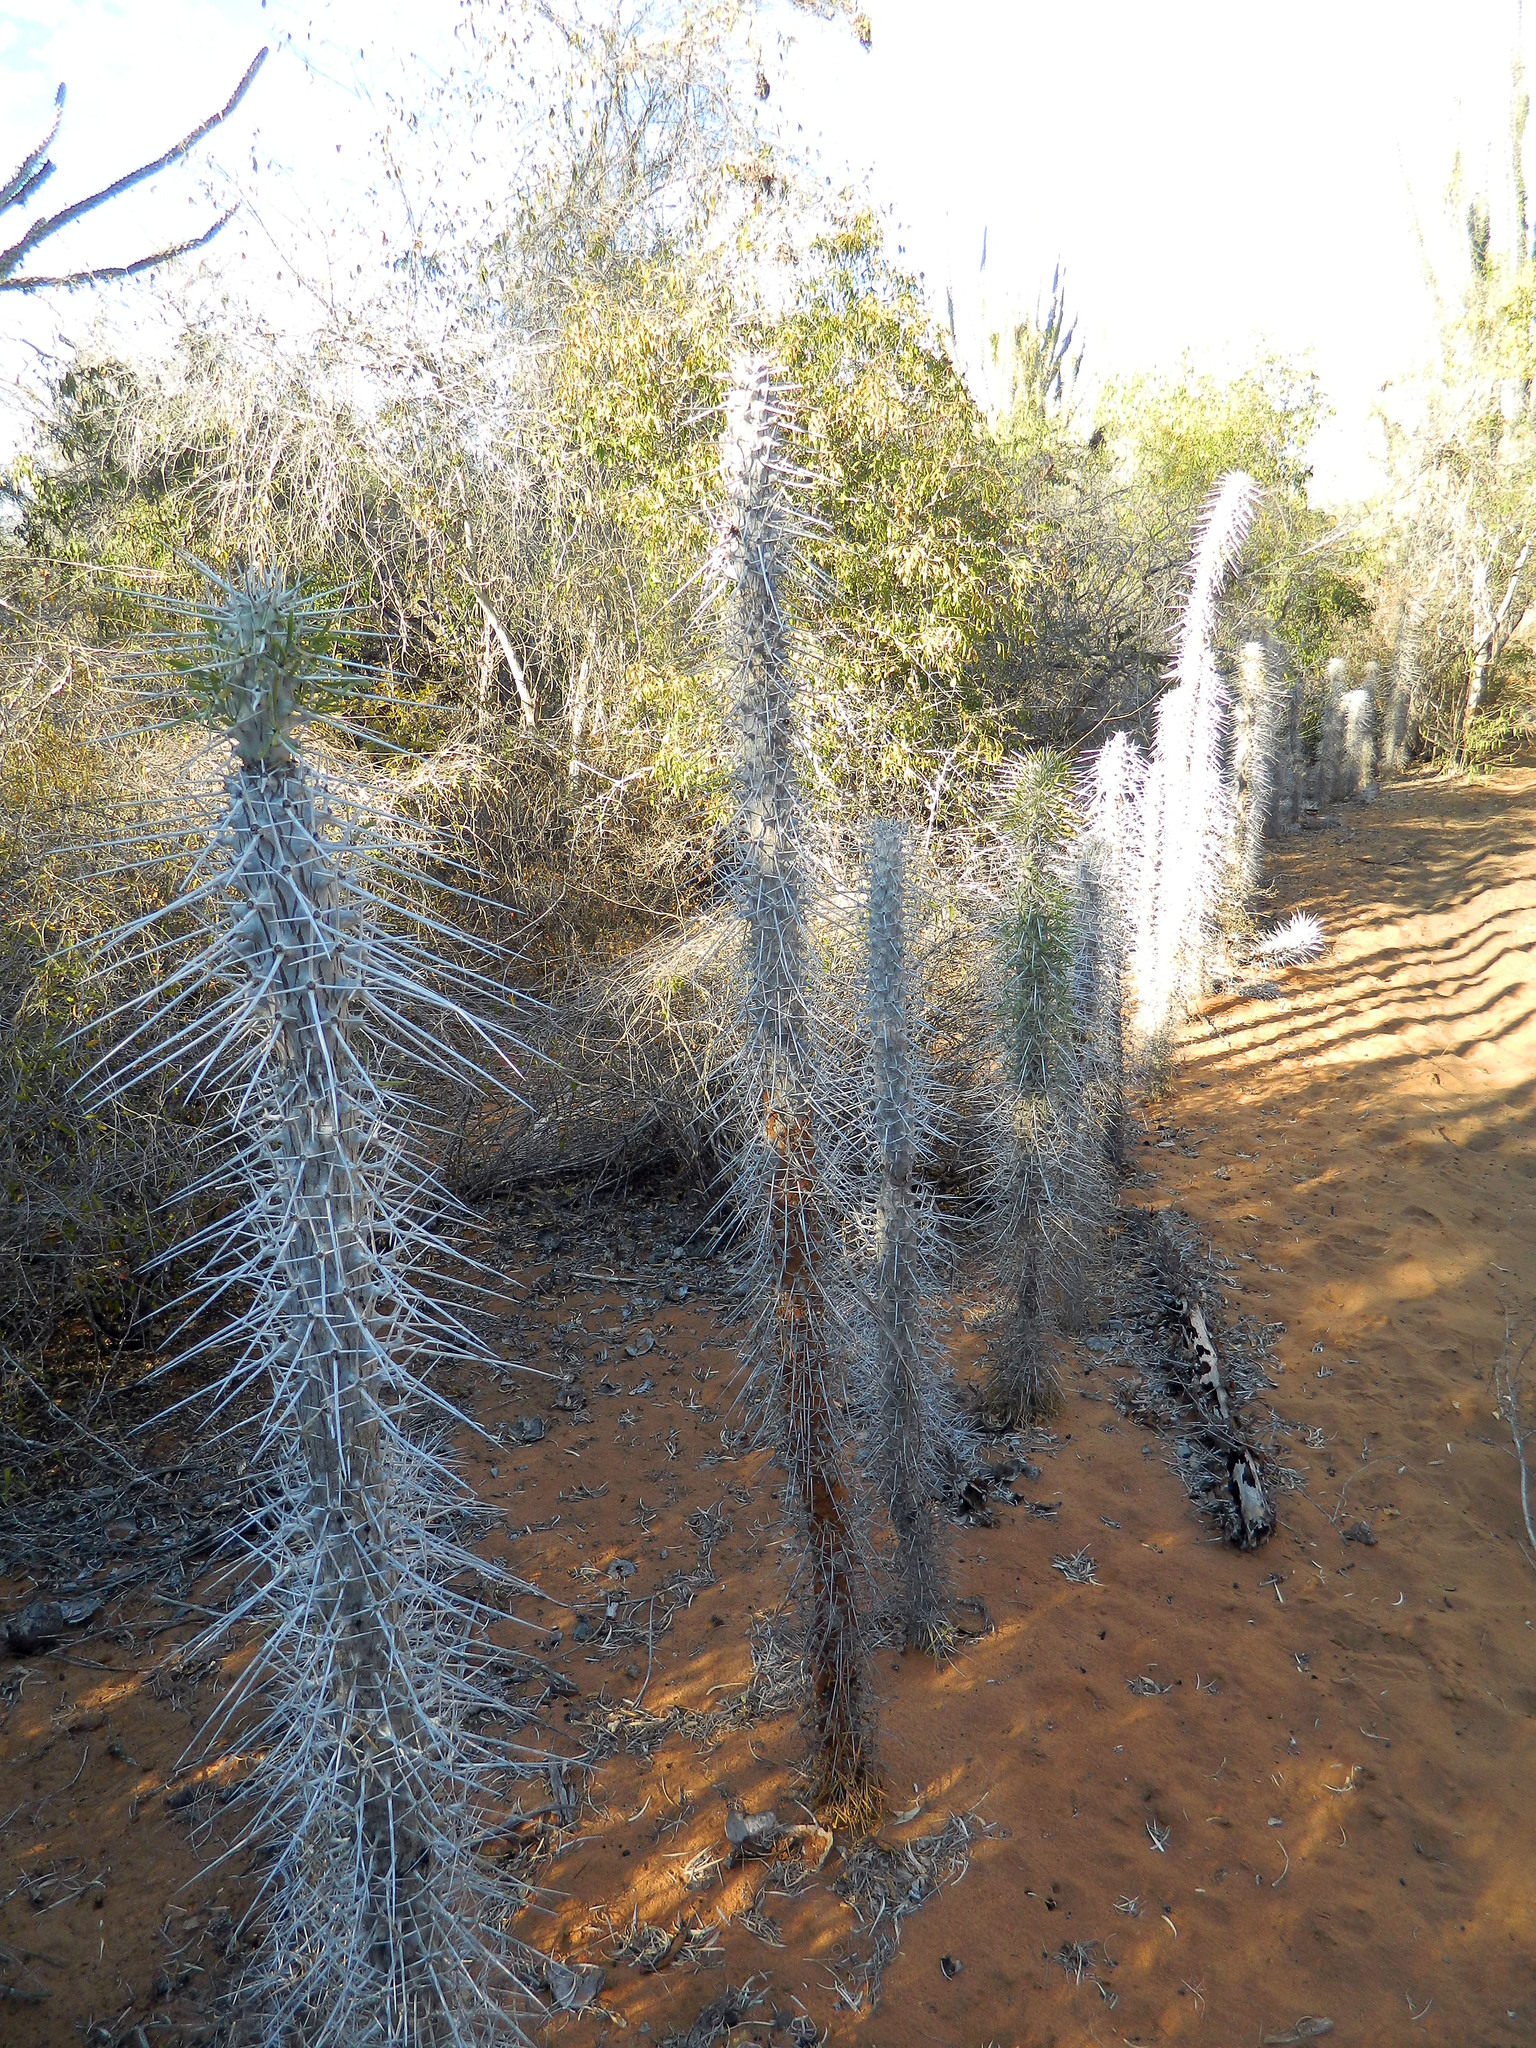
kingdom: Plantae
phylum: Tracheophyta
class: Magnoliopsida
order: Caryophyllales
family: Didiereaceae
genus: Didierea
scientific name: Didierea madagascariensis
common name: Octopus-tree
